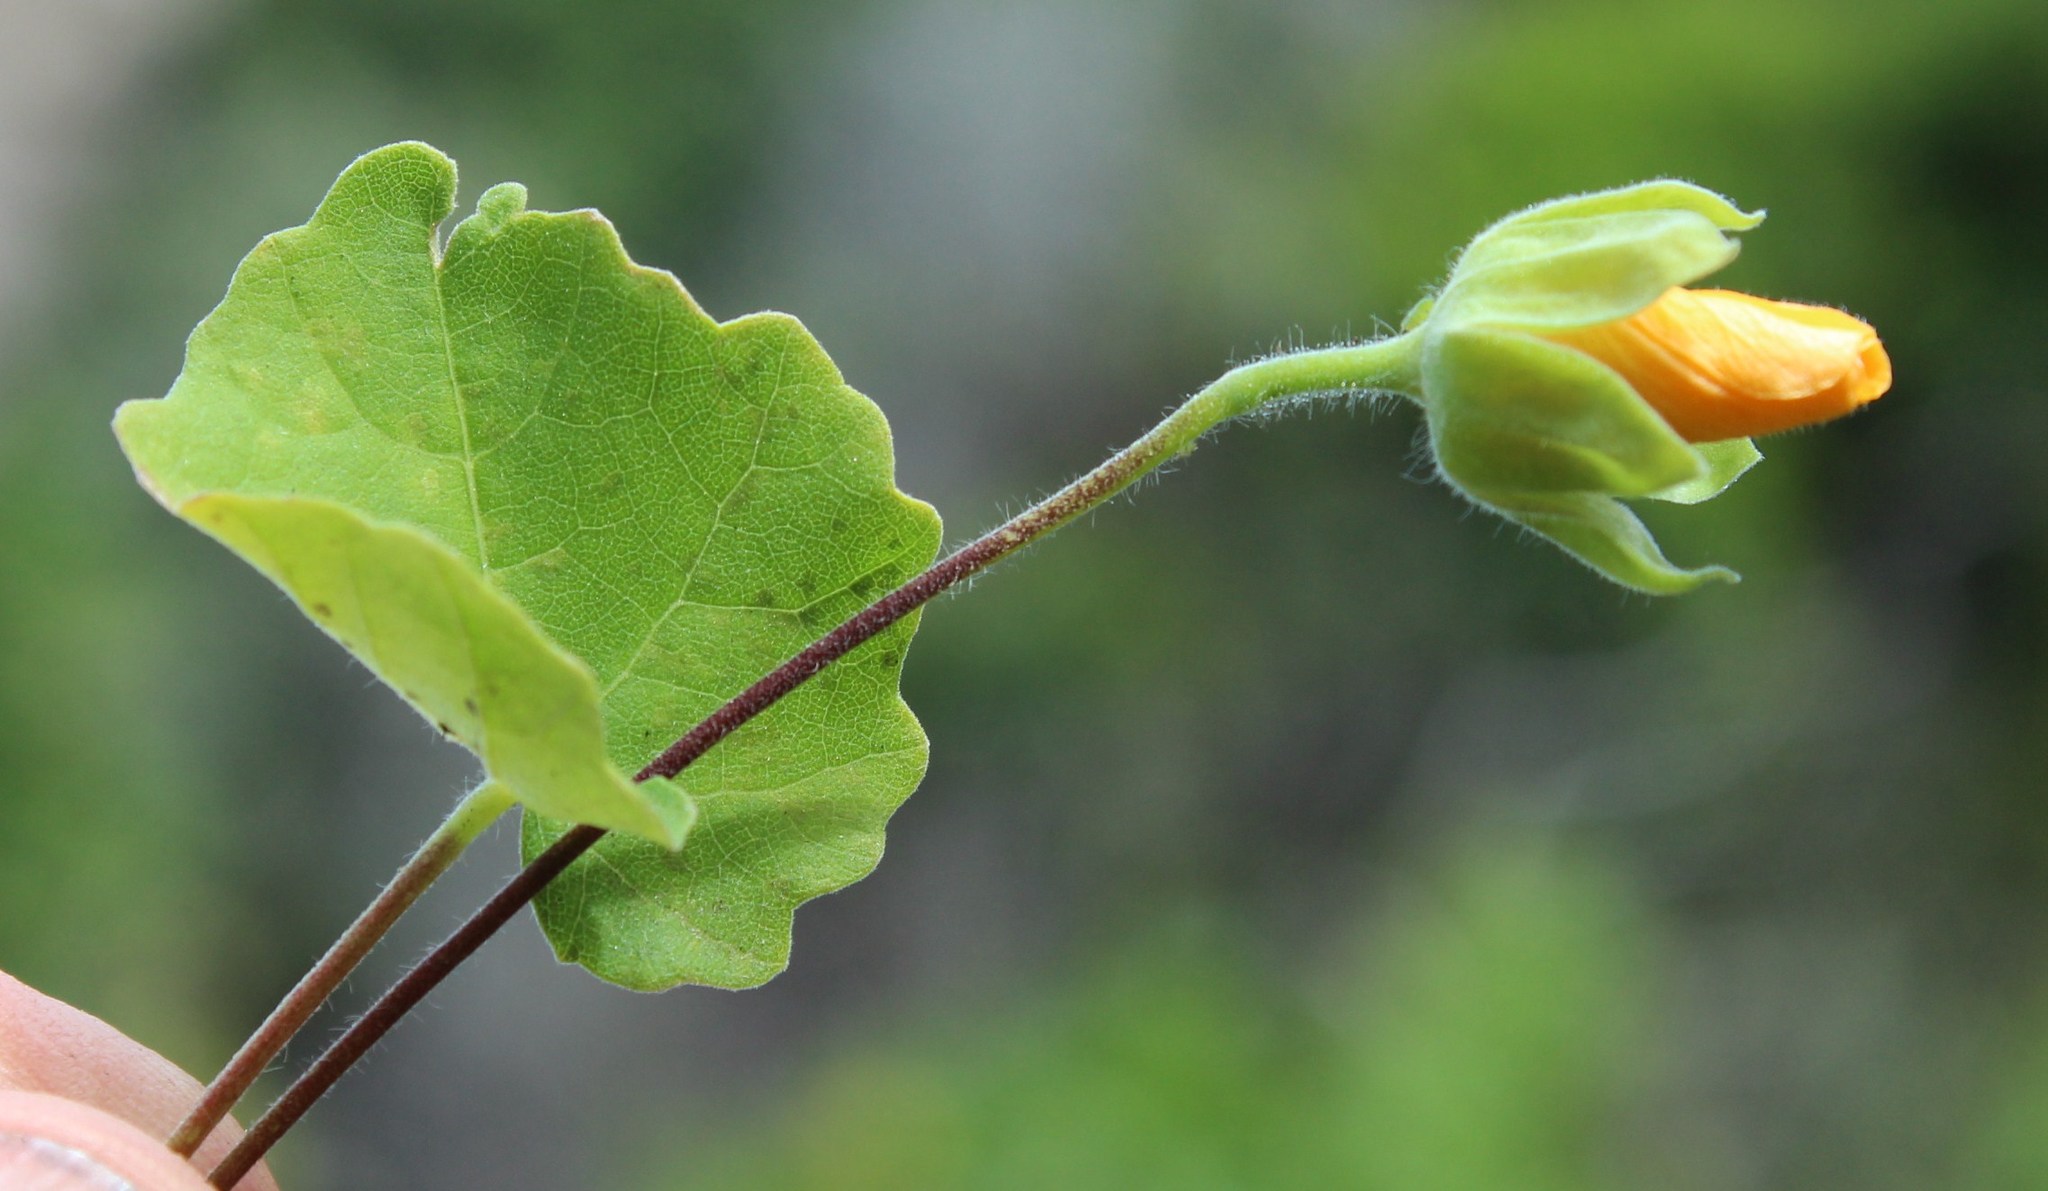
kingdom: Plantae
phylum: Tracheophyta
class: Magnoliopsida
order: Malvales
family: Malvaceae
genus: Abutilon
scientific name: Abutilon sonneratianum
